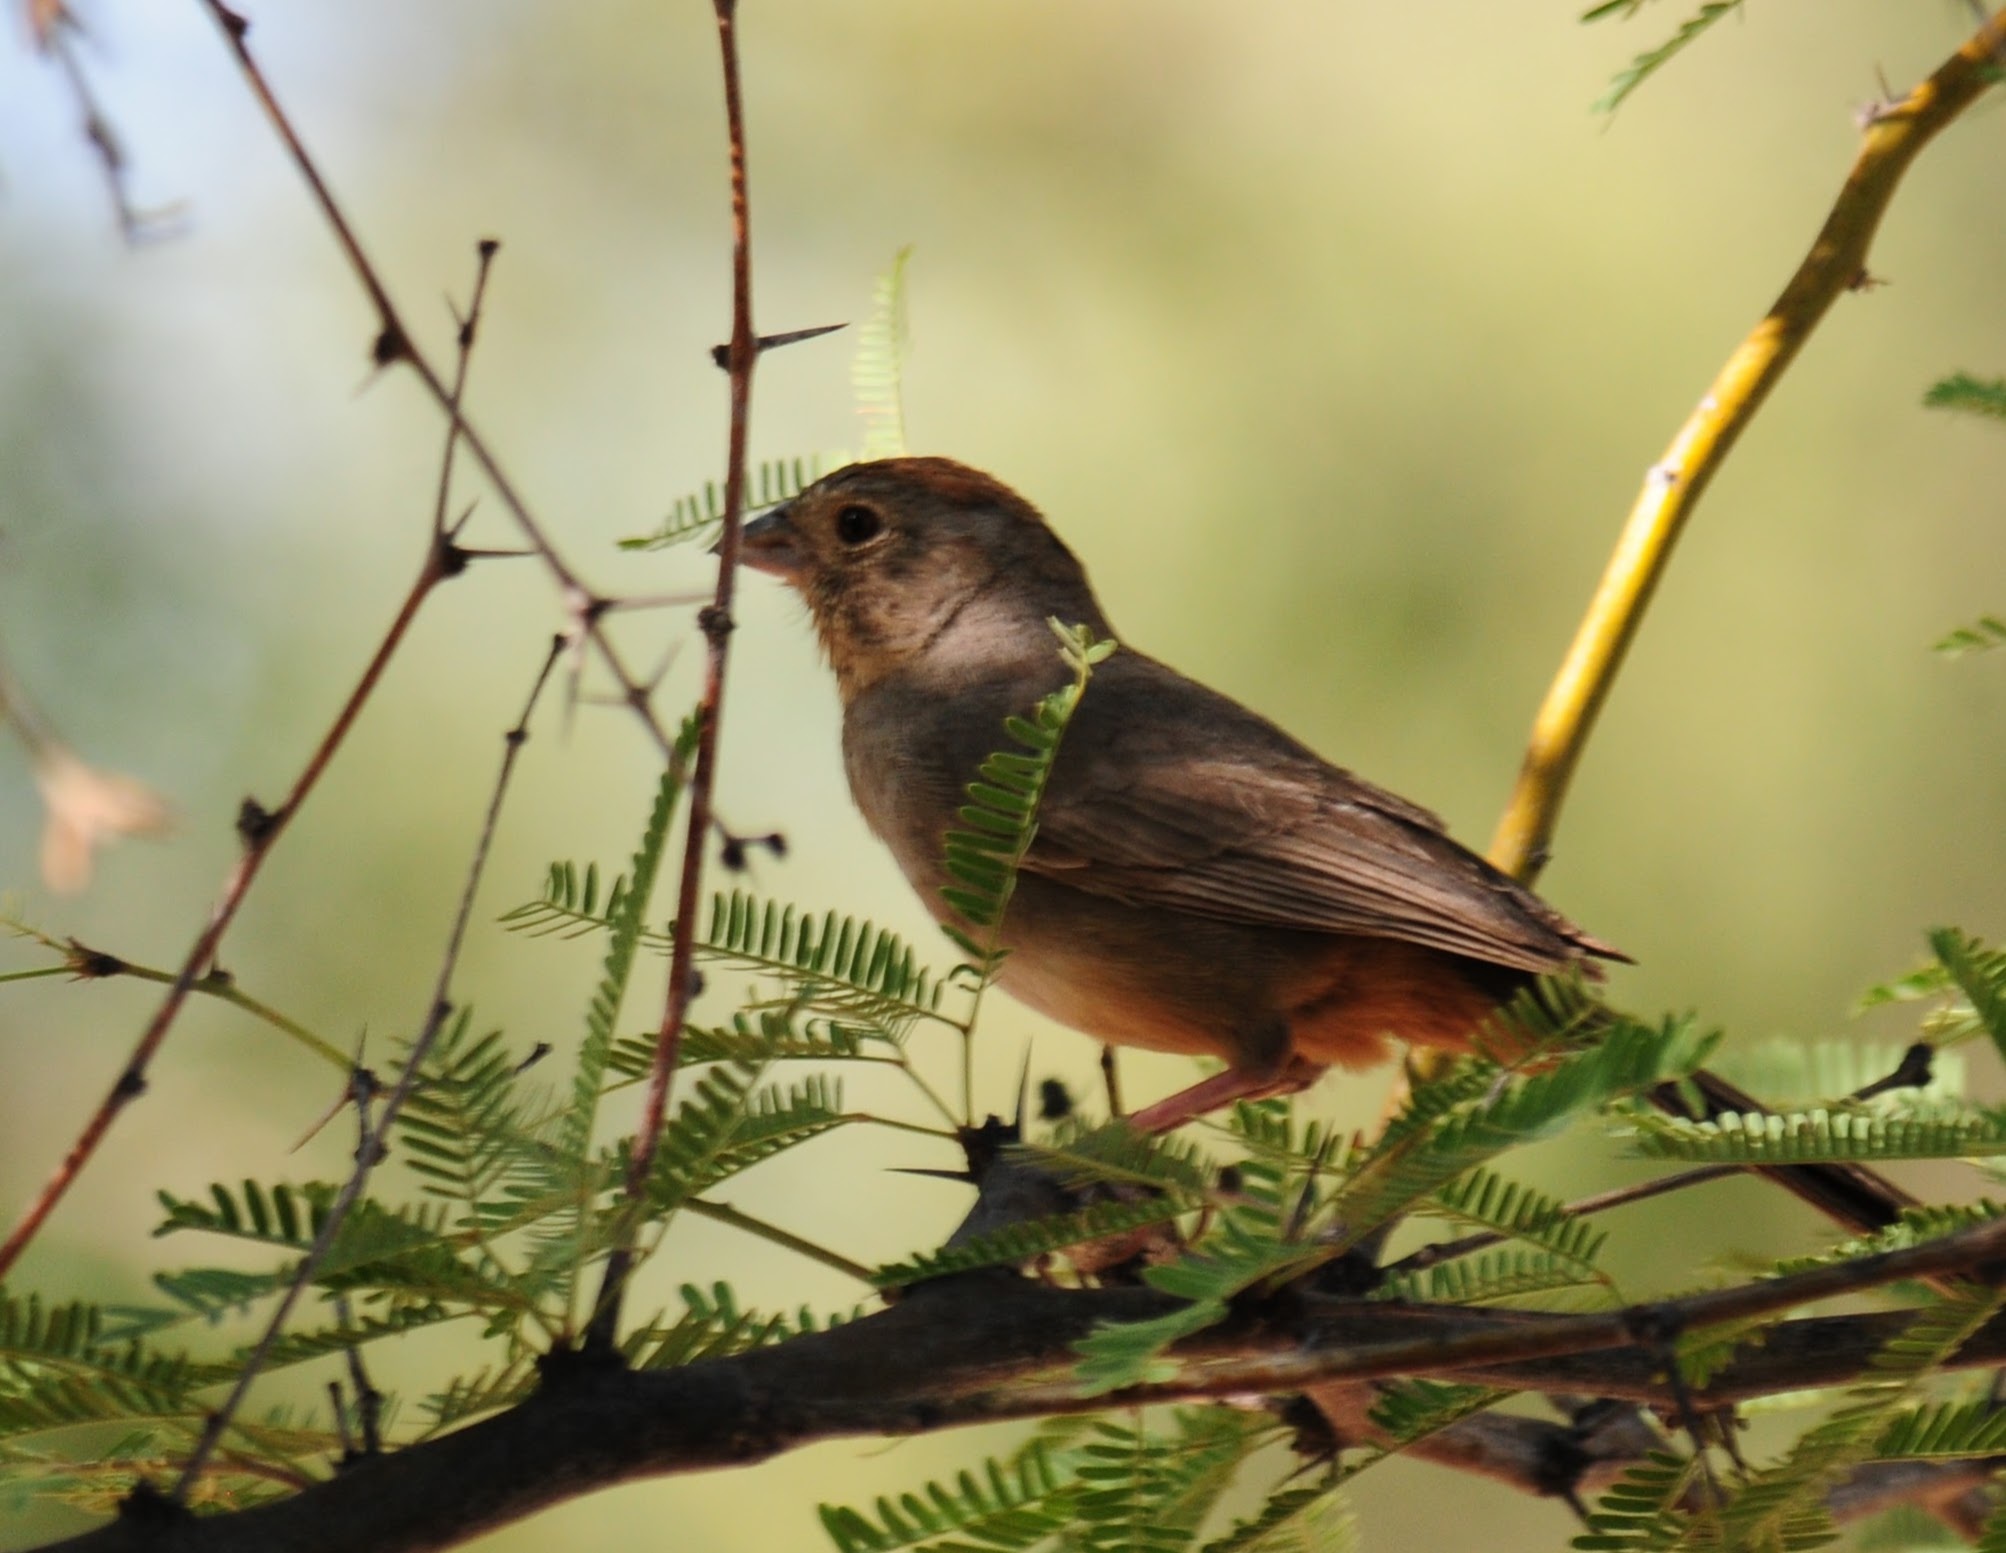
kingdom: Animalia
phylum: Chordata
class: Aves
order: Passeriformes
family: Passerellidae
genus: Melozone
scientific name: Melozone fusca
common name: Canyon towhee
